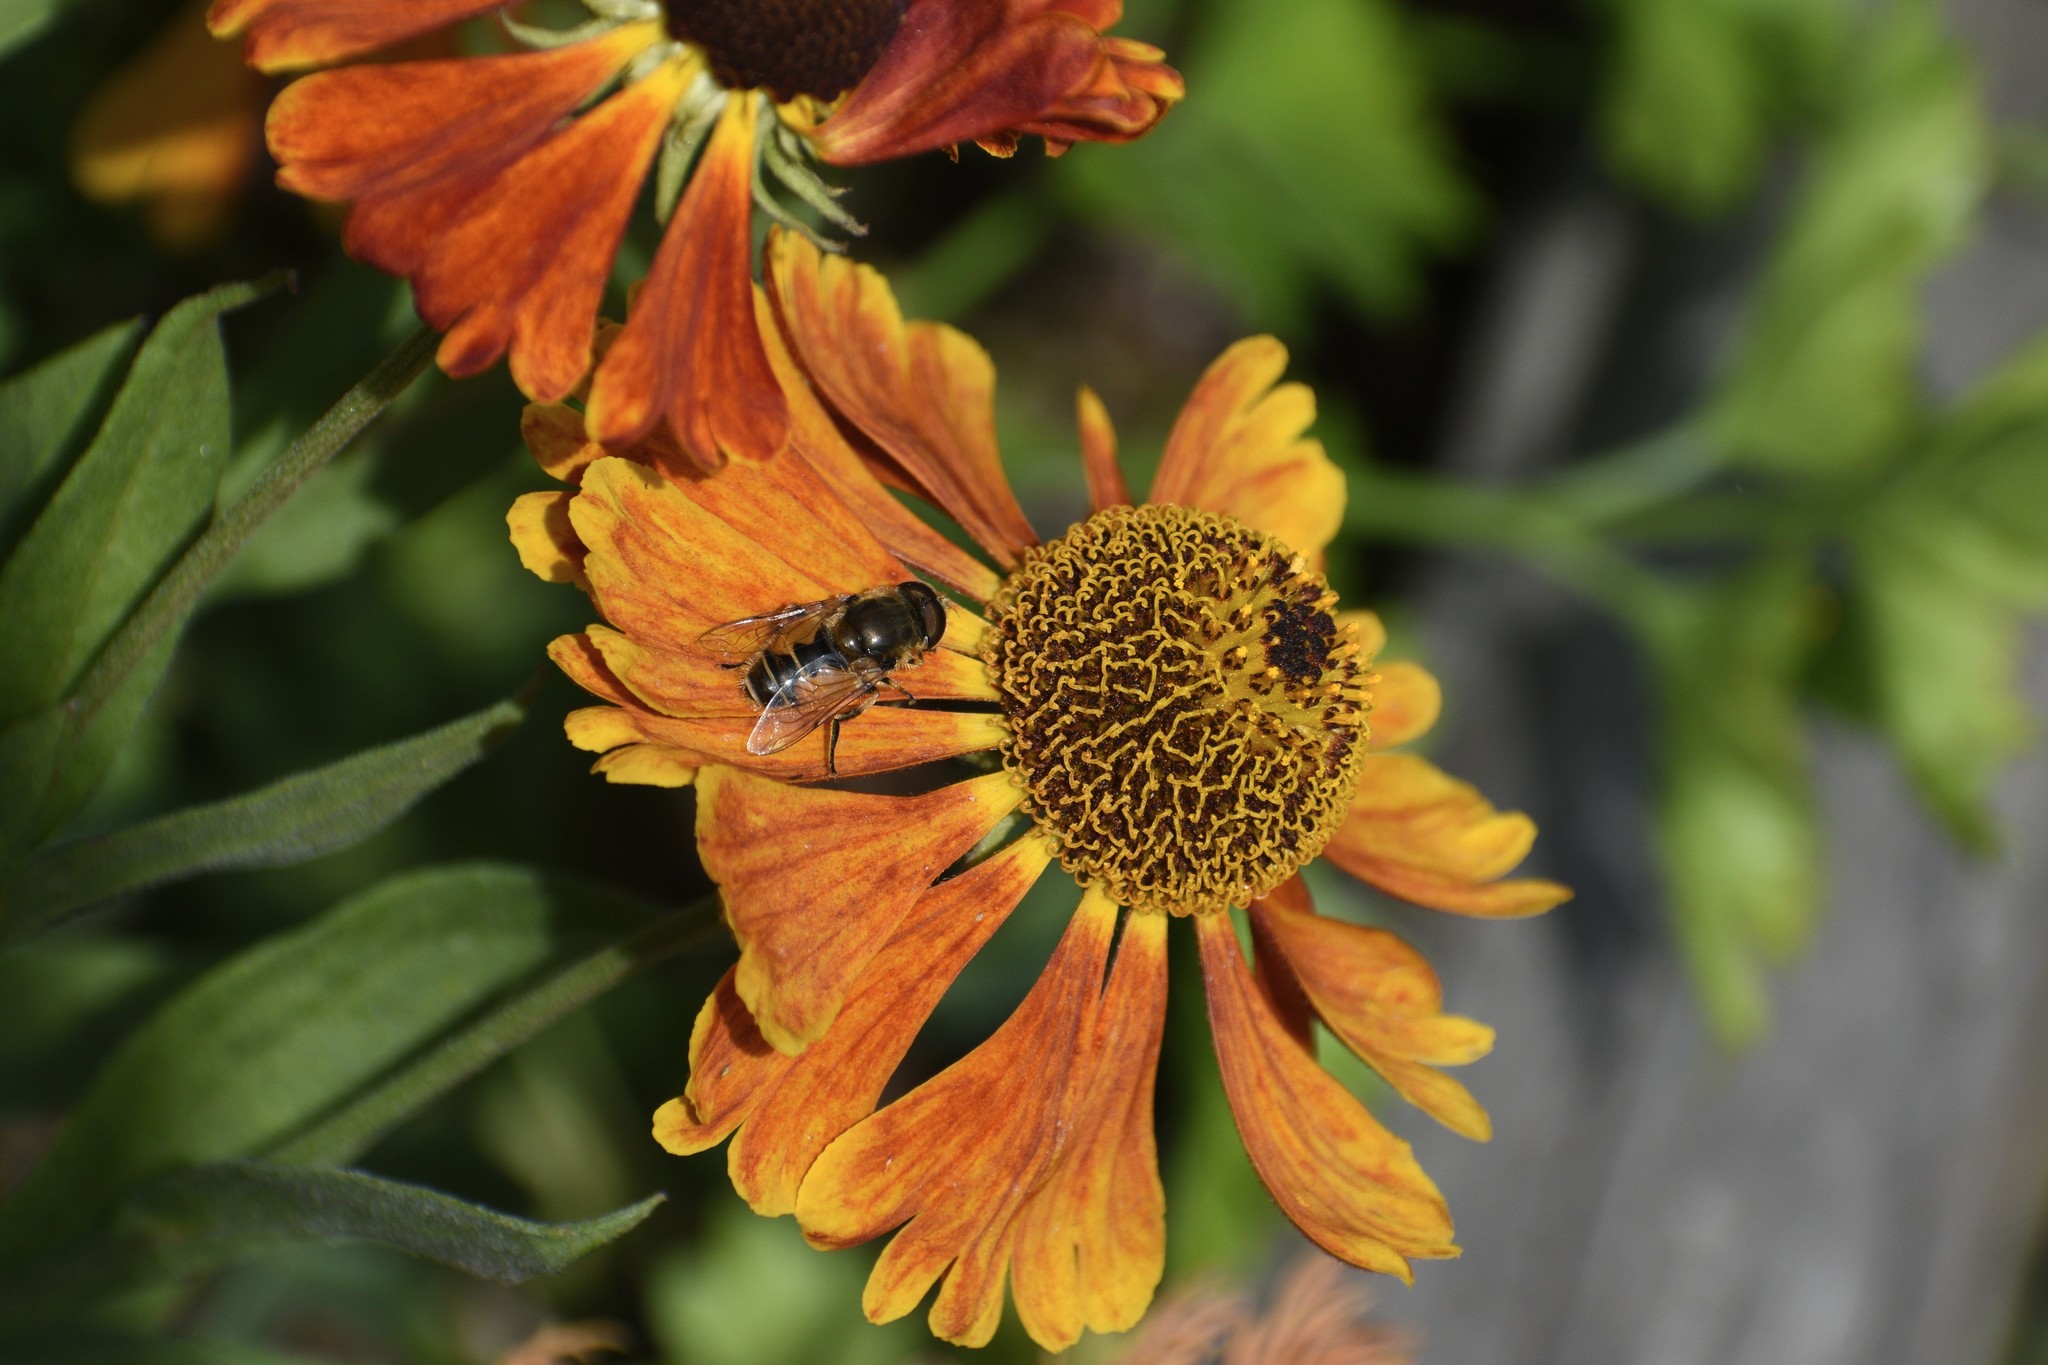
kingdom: Animalia
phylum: Arthropoda
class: Insecta
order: Diptera
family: Syrphidae
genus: Eristalis
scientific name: Eristalis arbustorum
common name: Hover fly
